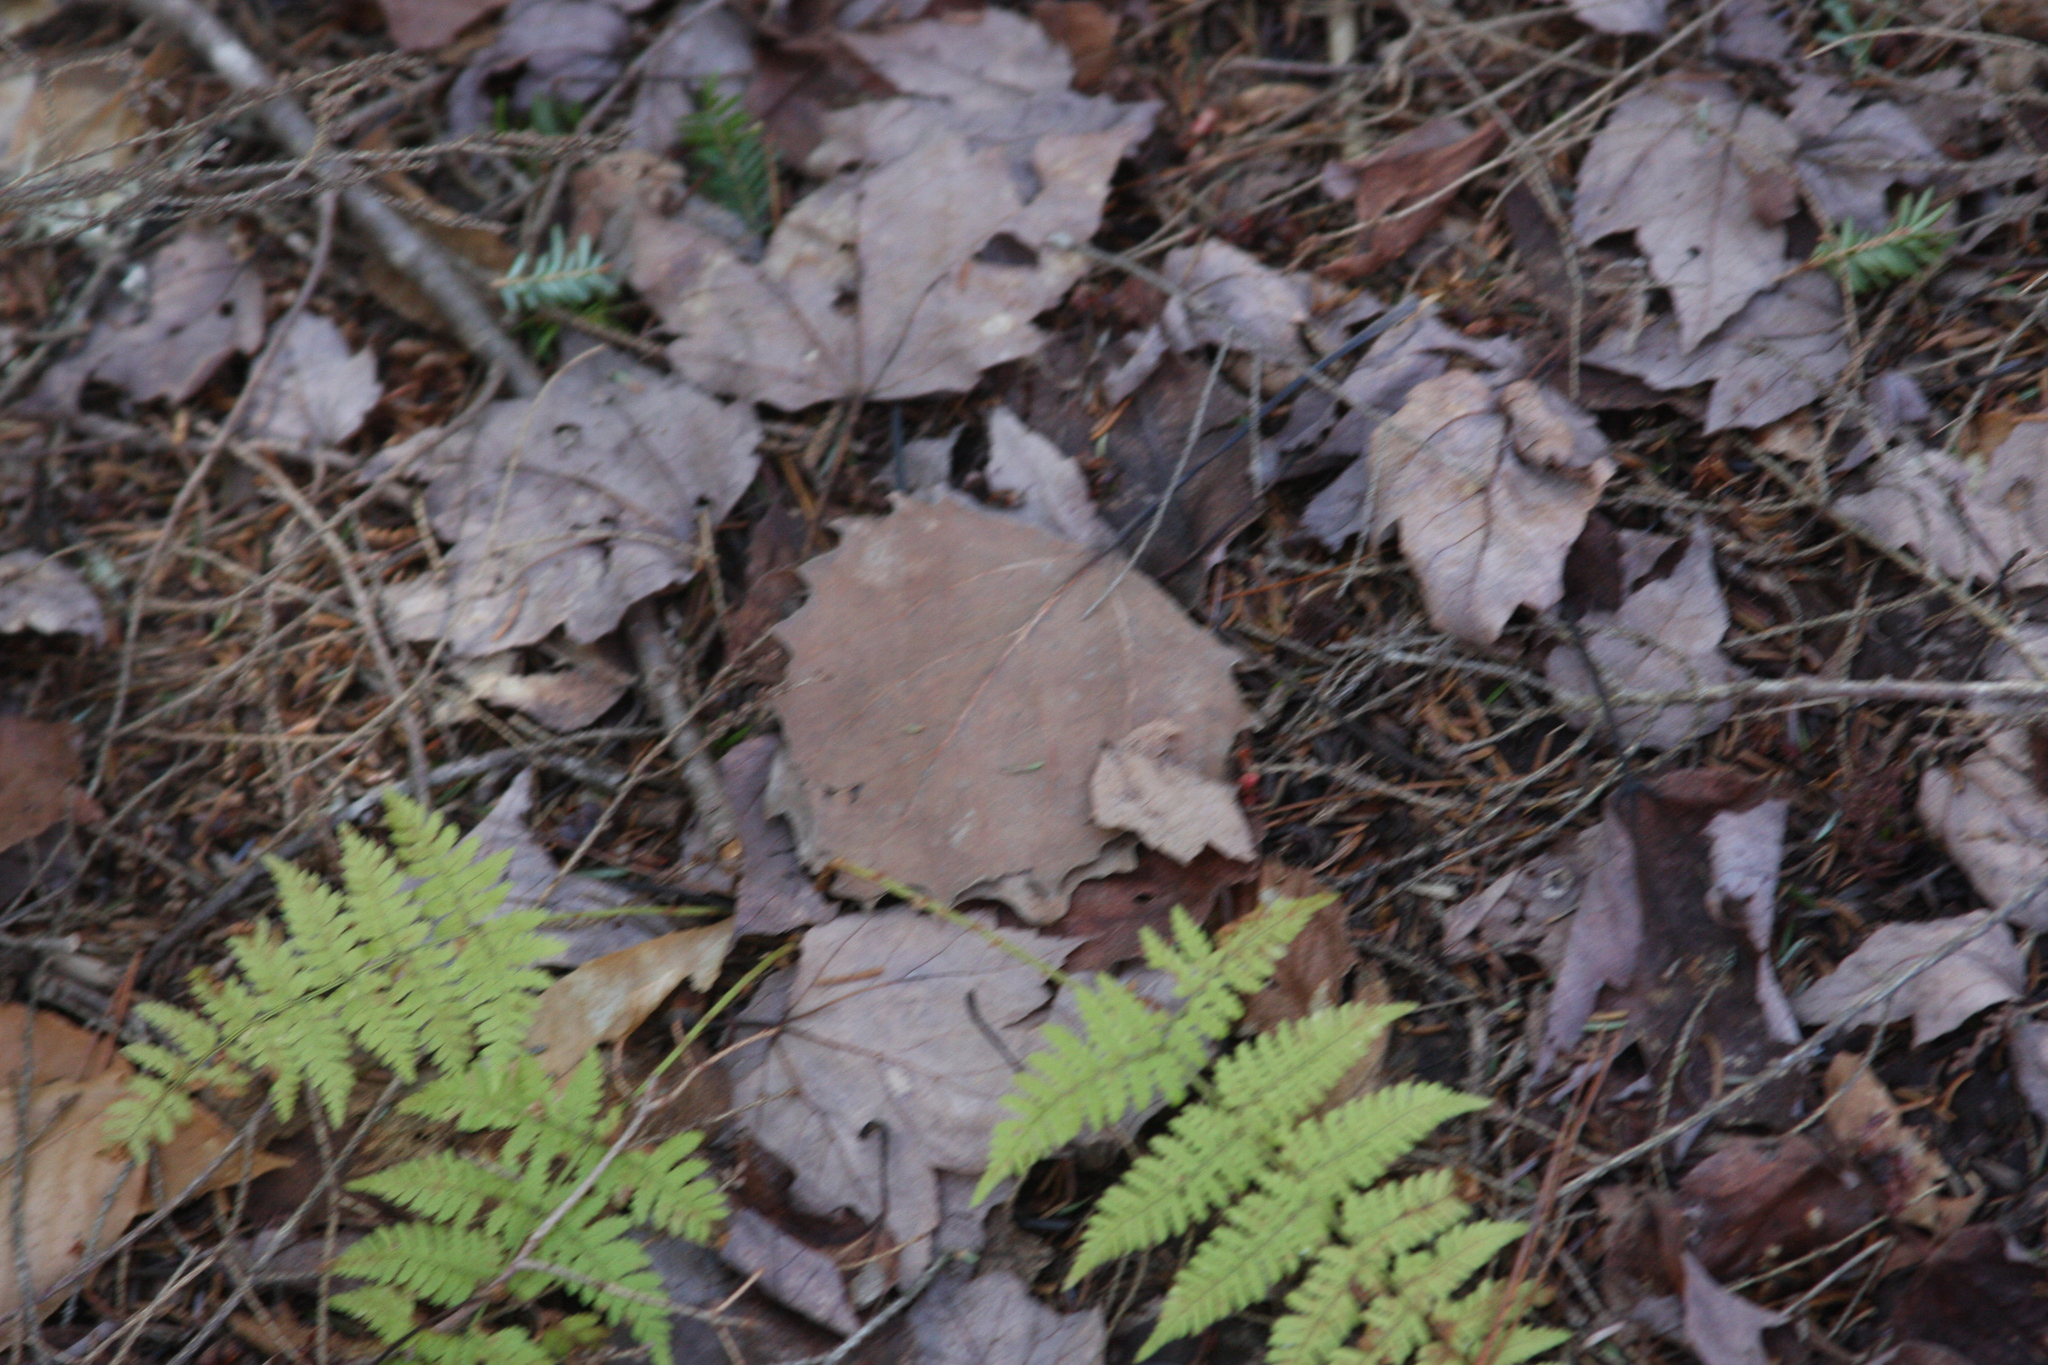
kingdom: Plantae
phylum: Tracheophyta
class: Magnoliopsida
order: Malpighiales
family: Salicaceae
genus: Populus
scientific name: Populus grandidentata
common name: Bigtooth aspen
